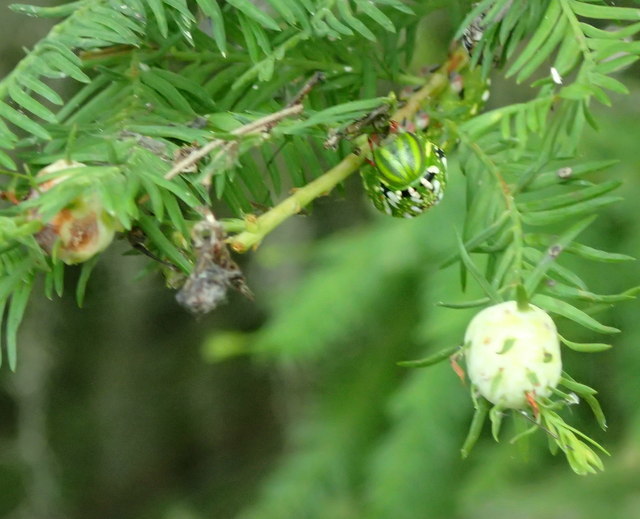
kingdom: Animalia
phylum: Arthropoda
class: Insecta
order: Diptera
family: Cecidomyiidae
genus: Taxodiomyia
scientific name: Taxodiomyia cupressiananassa
